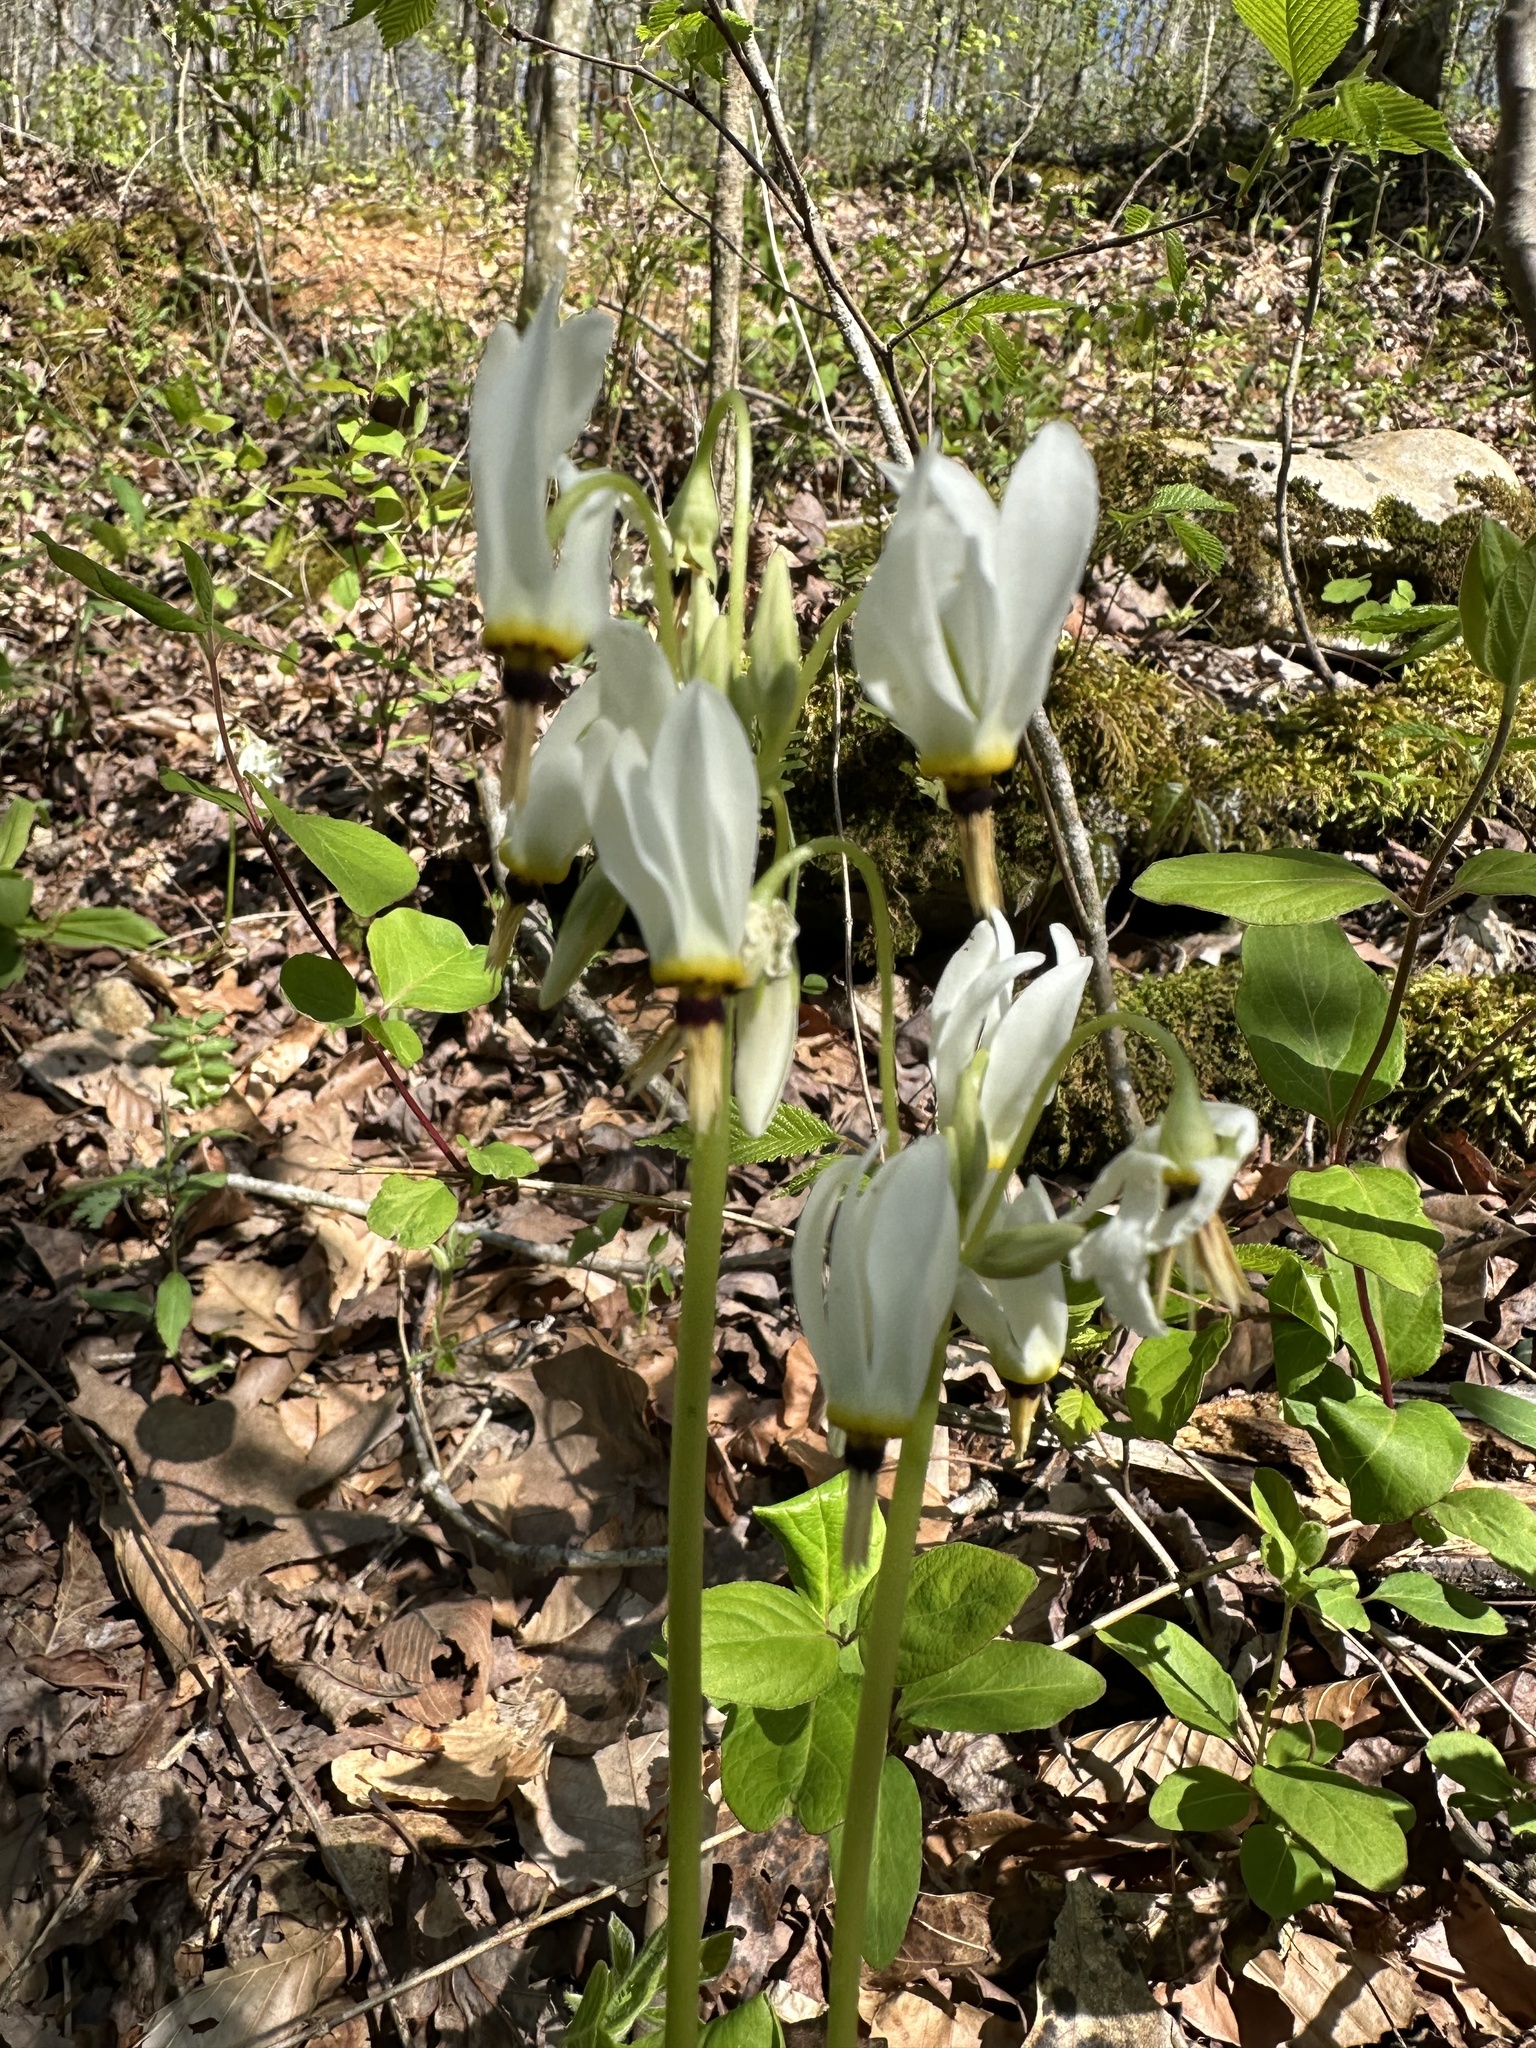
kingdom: Plantae
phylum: Tracheophyta
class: Magnoliopsida
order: Ericales
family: Primulaceae
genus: Dodecatheon
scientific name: Dodecatheon meadia
